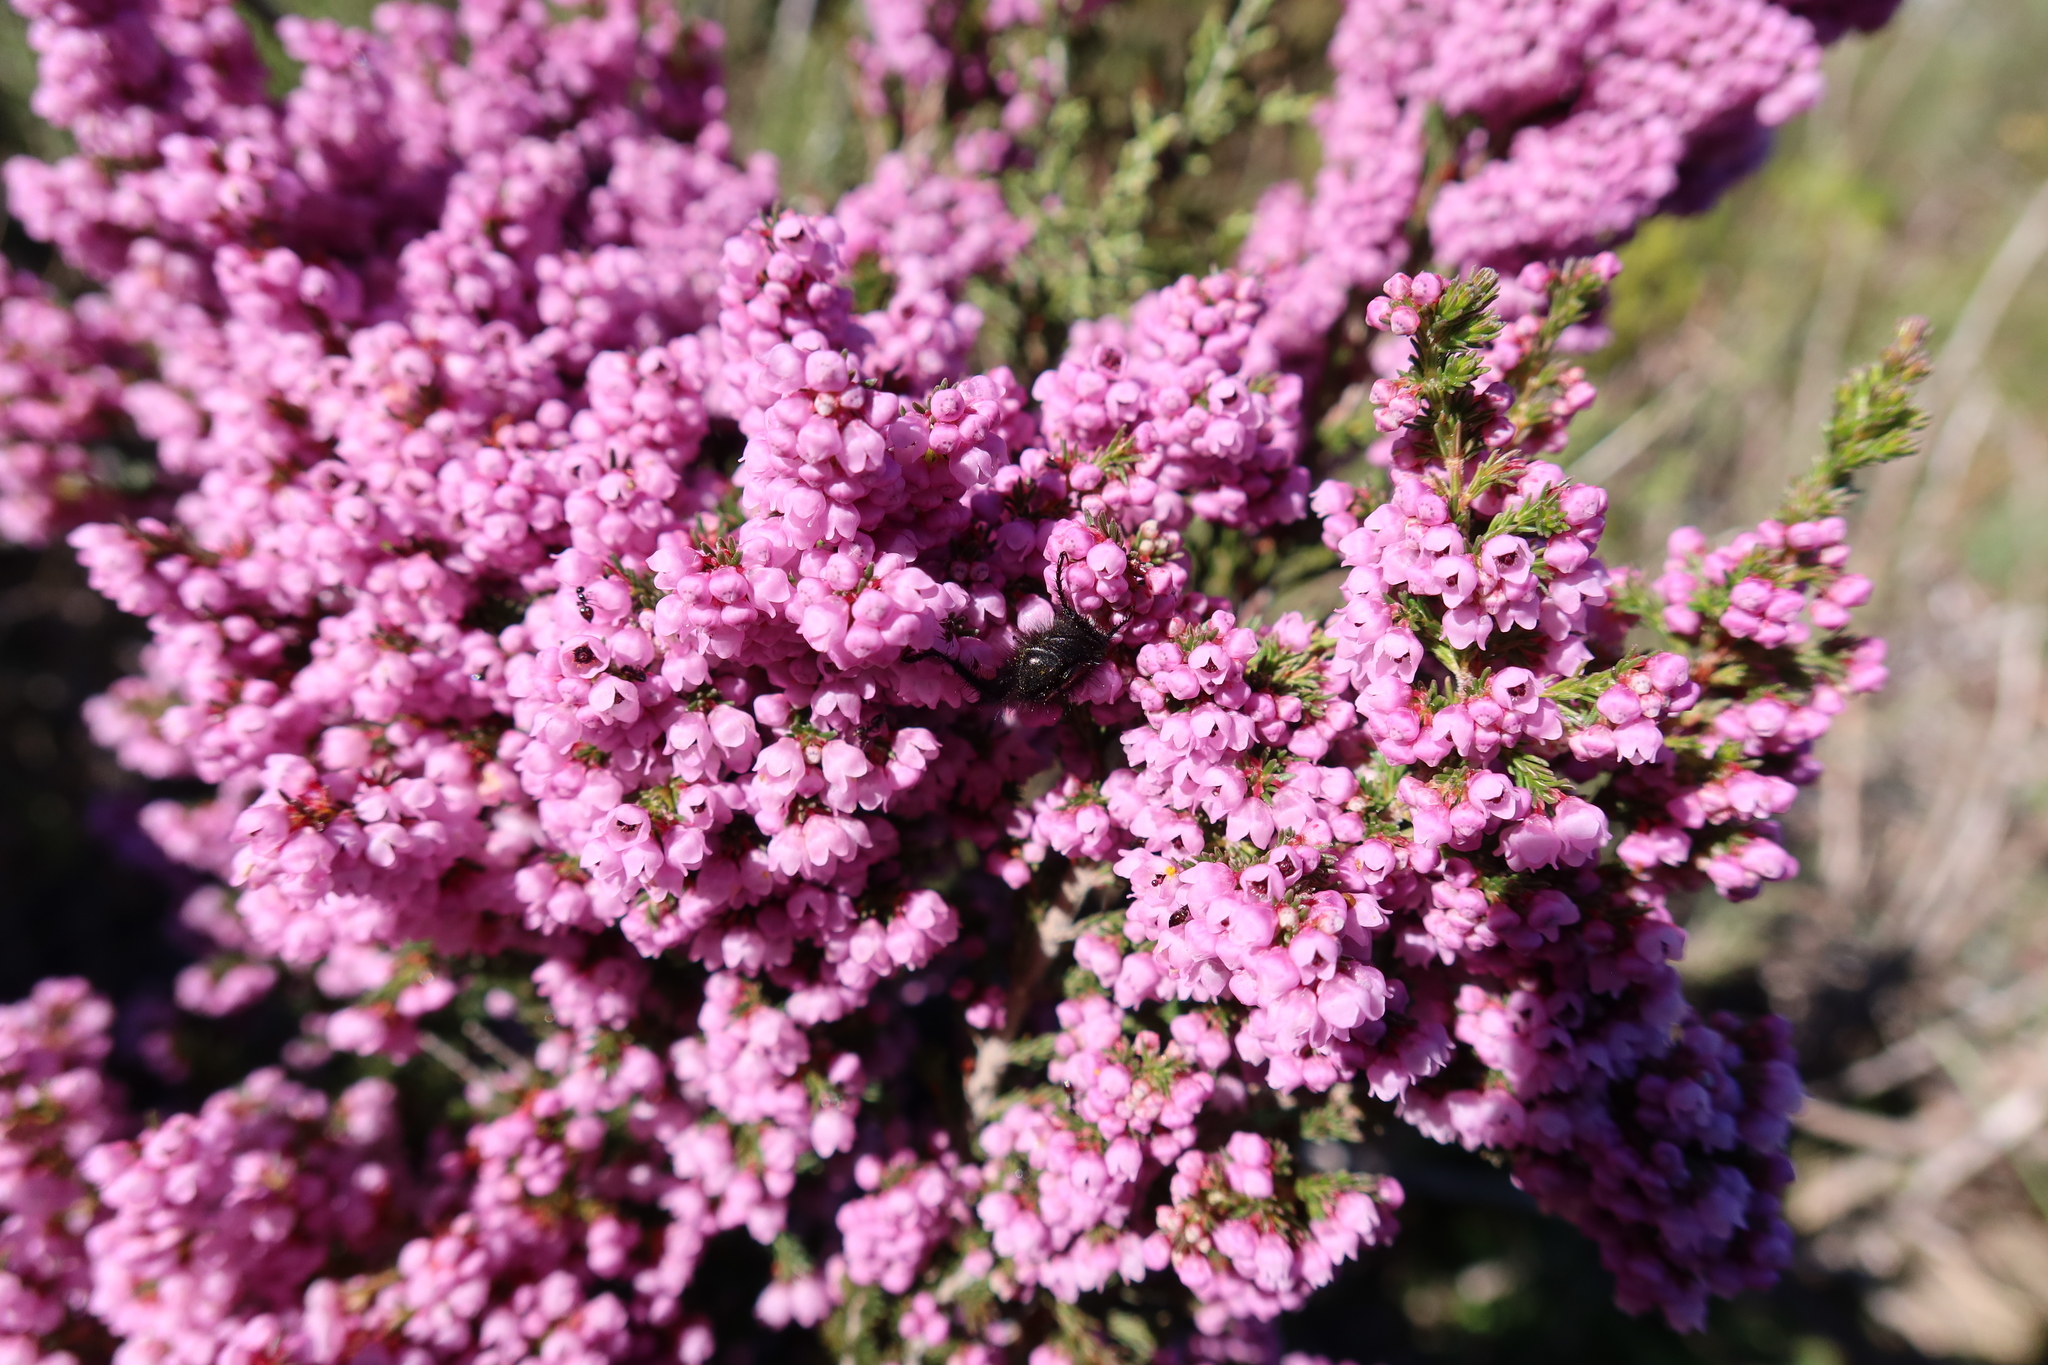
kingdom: Plantae
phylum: Tracheophyta
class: Magnoliopsida
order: Ericales
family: Ericaceae
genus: Erica
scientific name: Erica mauritanica
